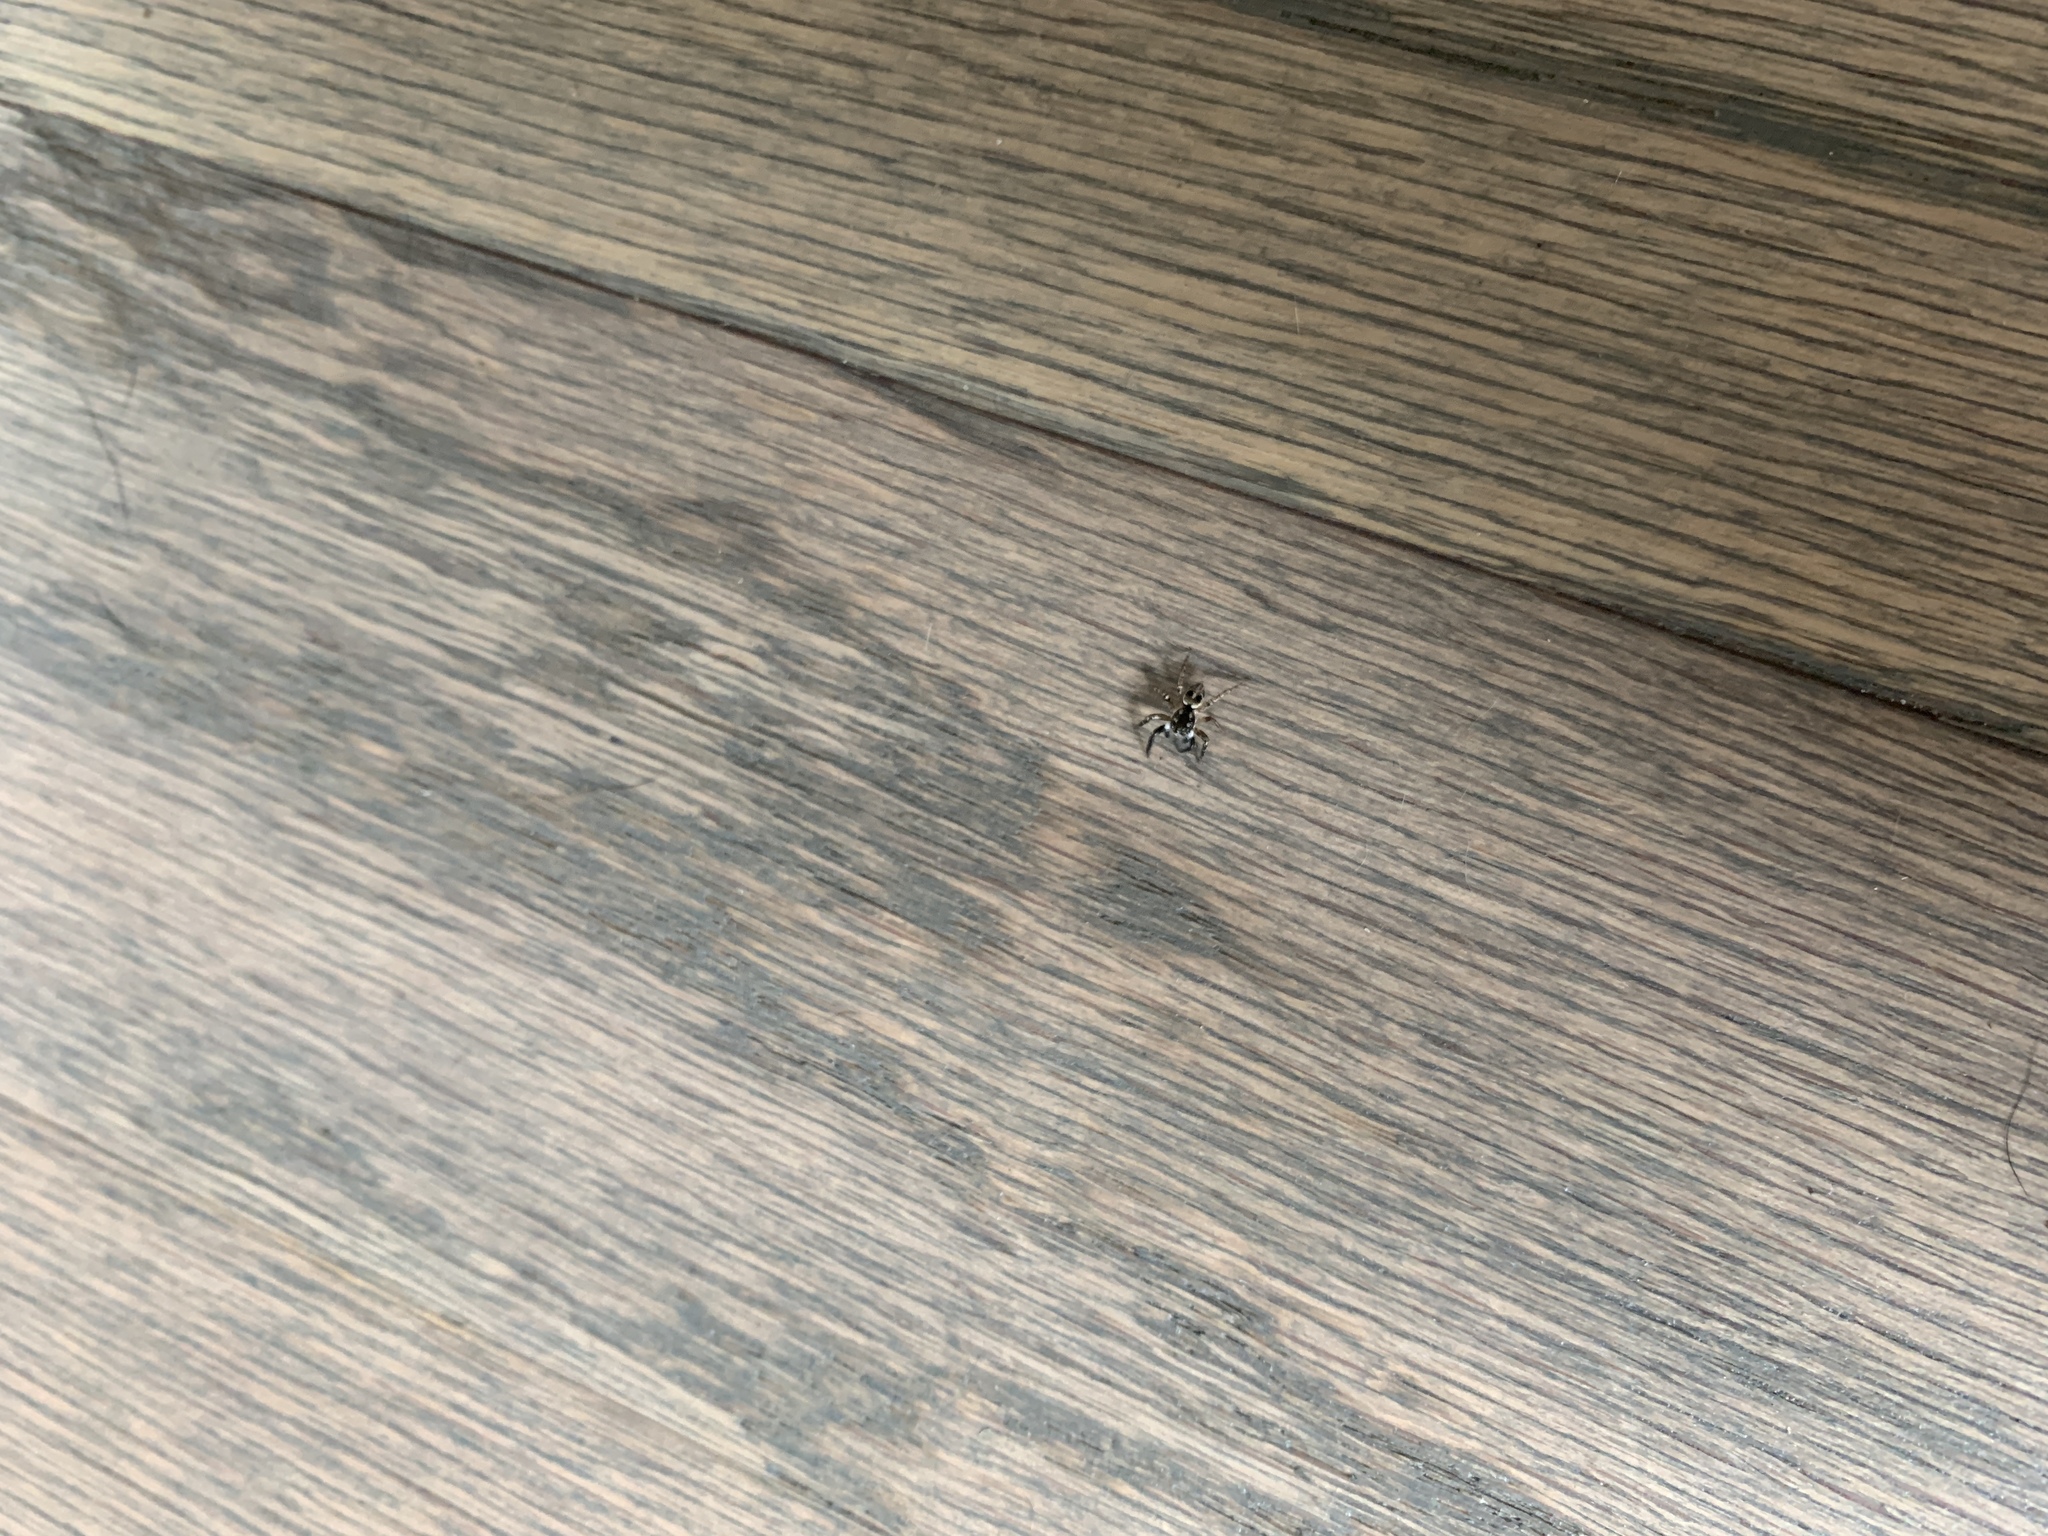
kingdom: Animalia
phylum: Arthropoda
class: Arachnida
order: Araneae
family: Salticidae
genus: Anasaitis
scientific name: Anasaitis canosa
